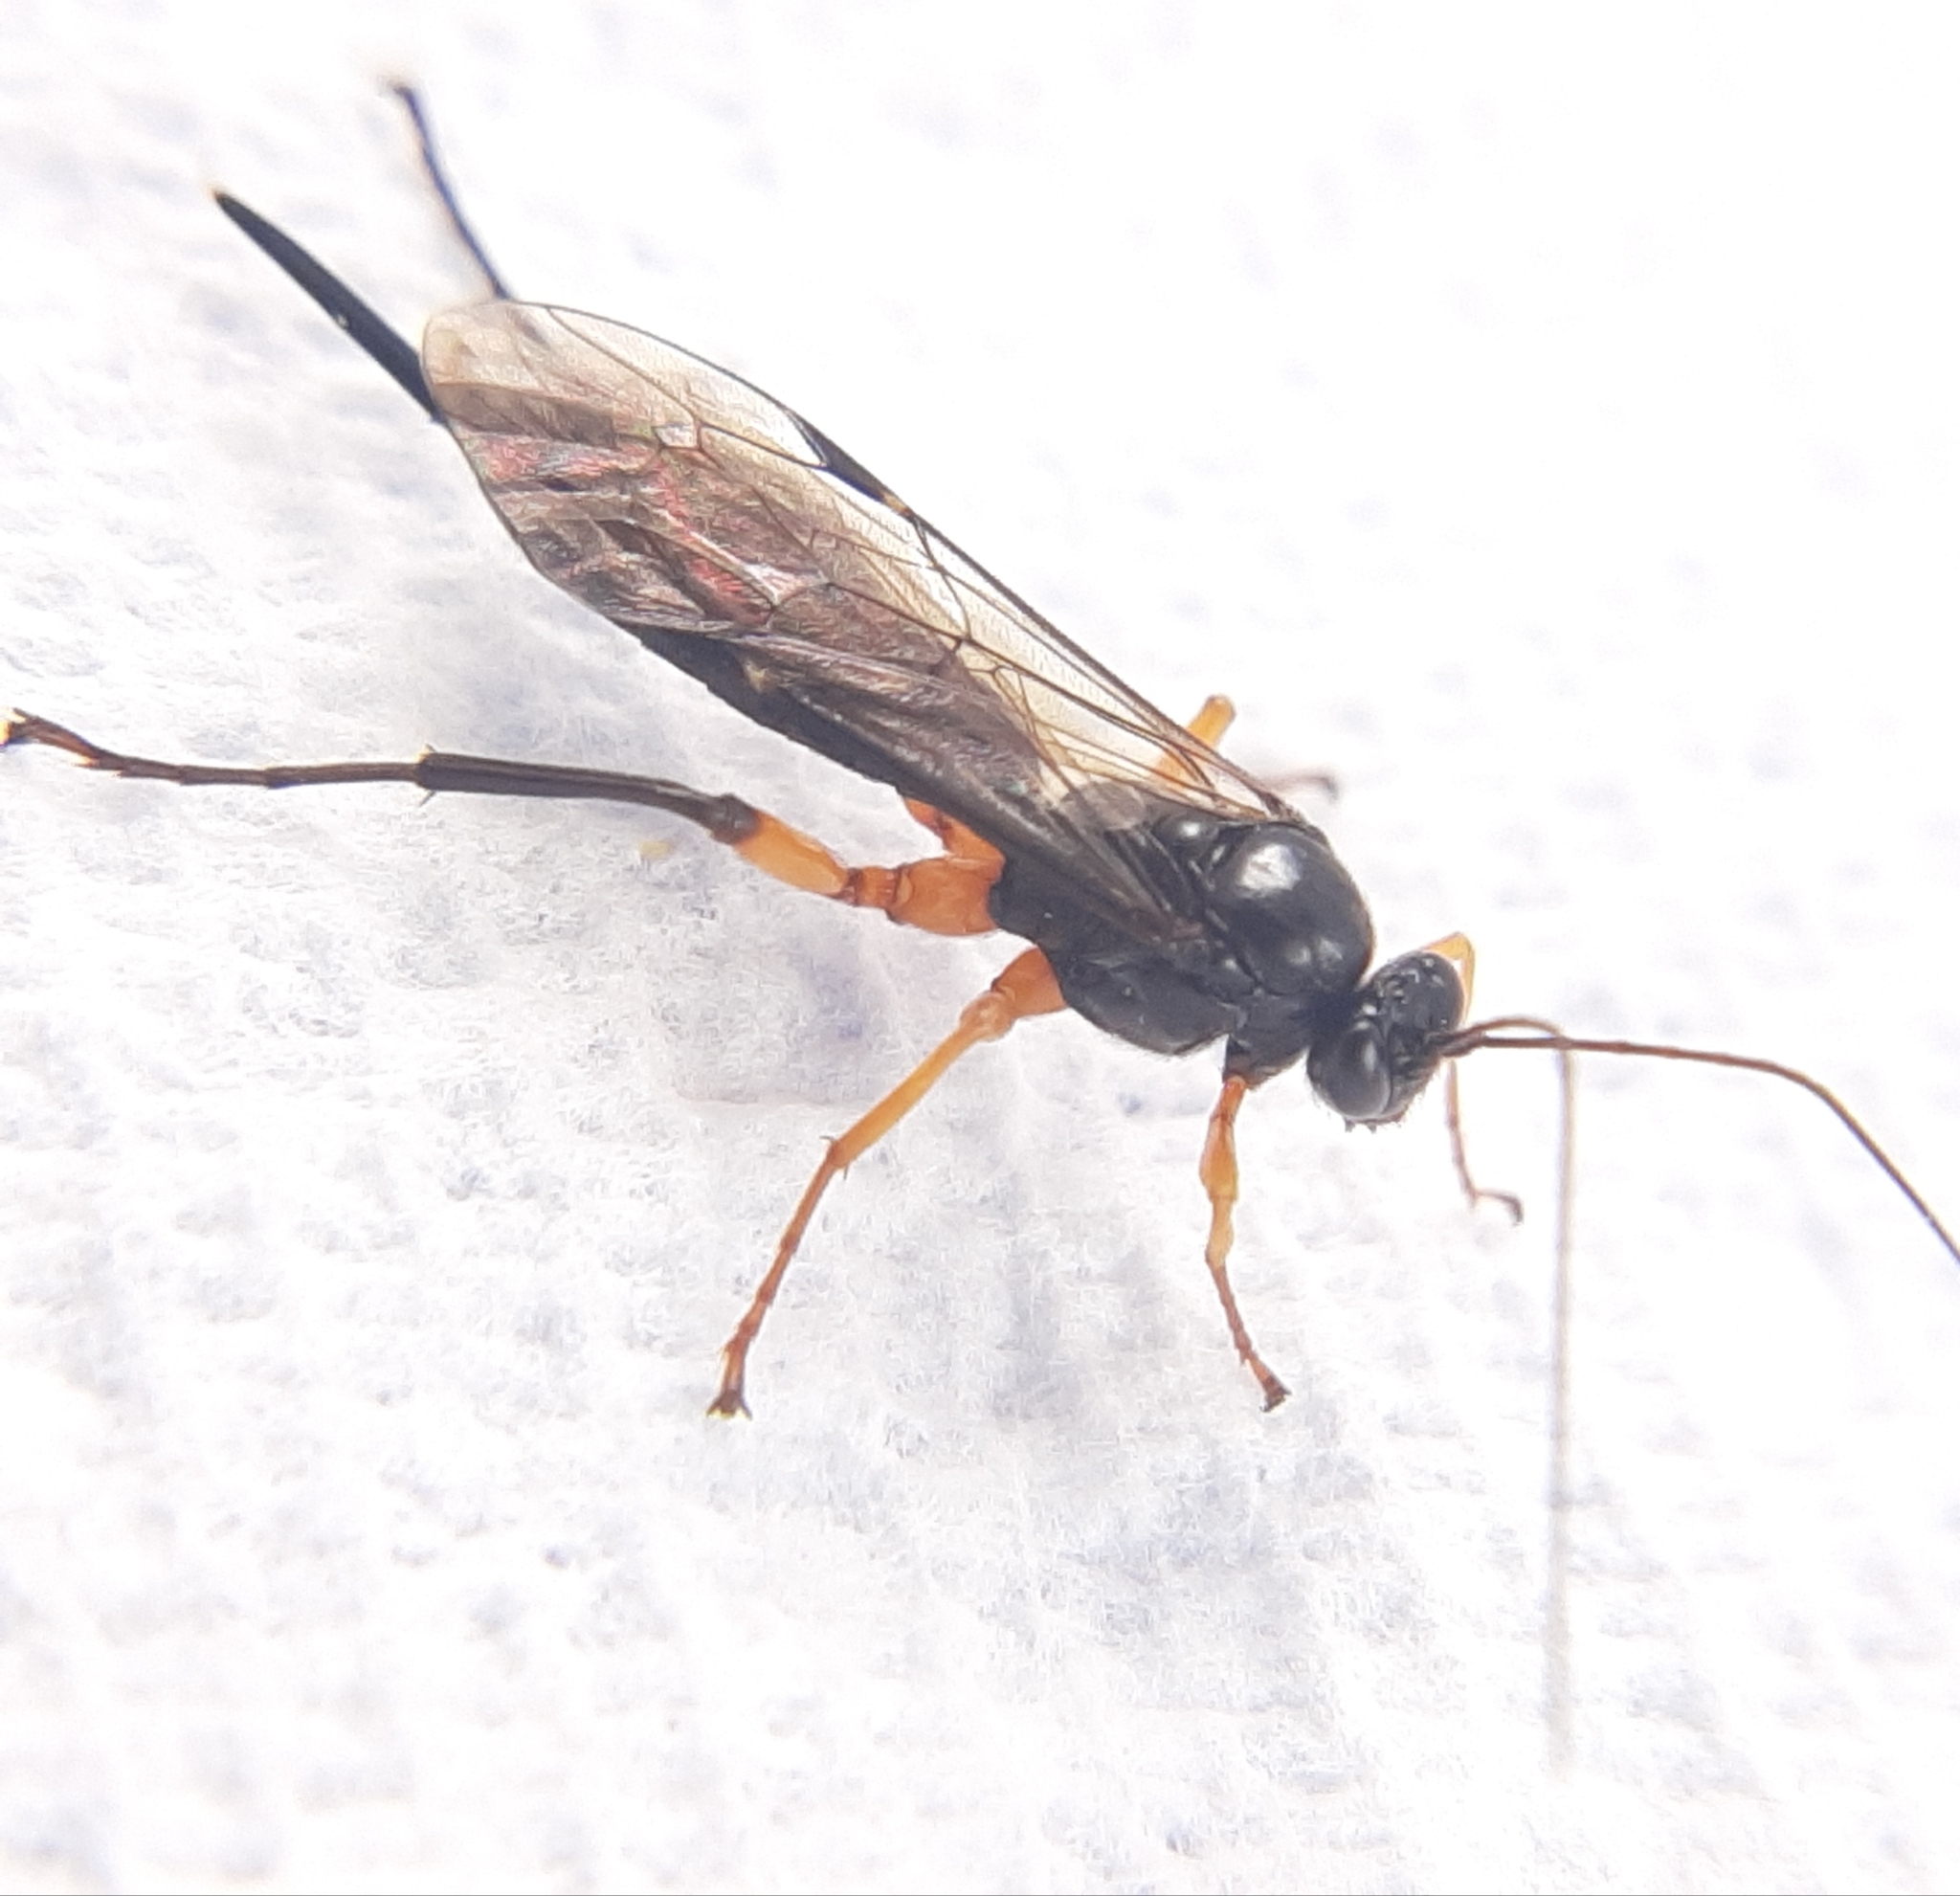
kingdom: Animalia
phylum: Arthropoda
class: Insecta
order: Hymenoptera
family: Ichneumonidae
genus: Pimpla
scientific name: Pimpla pedalis
